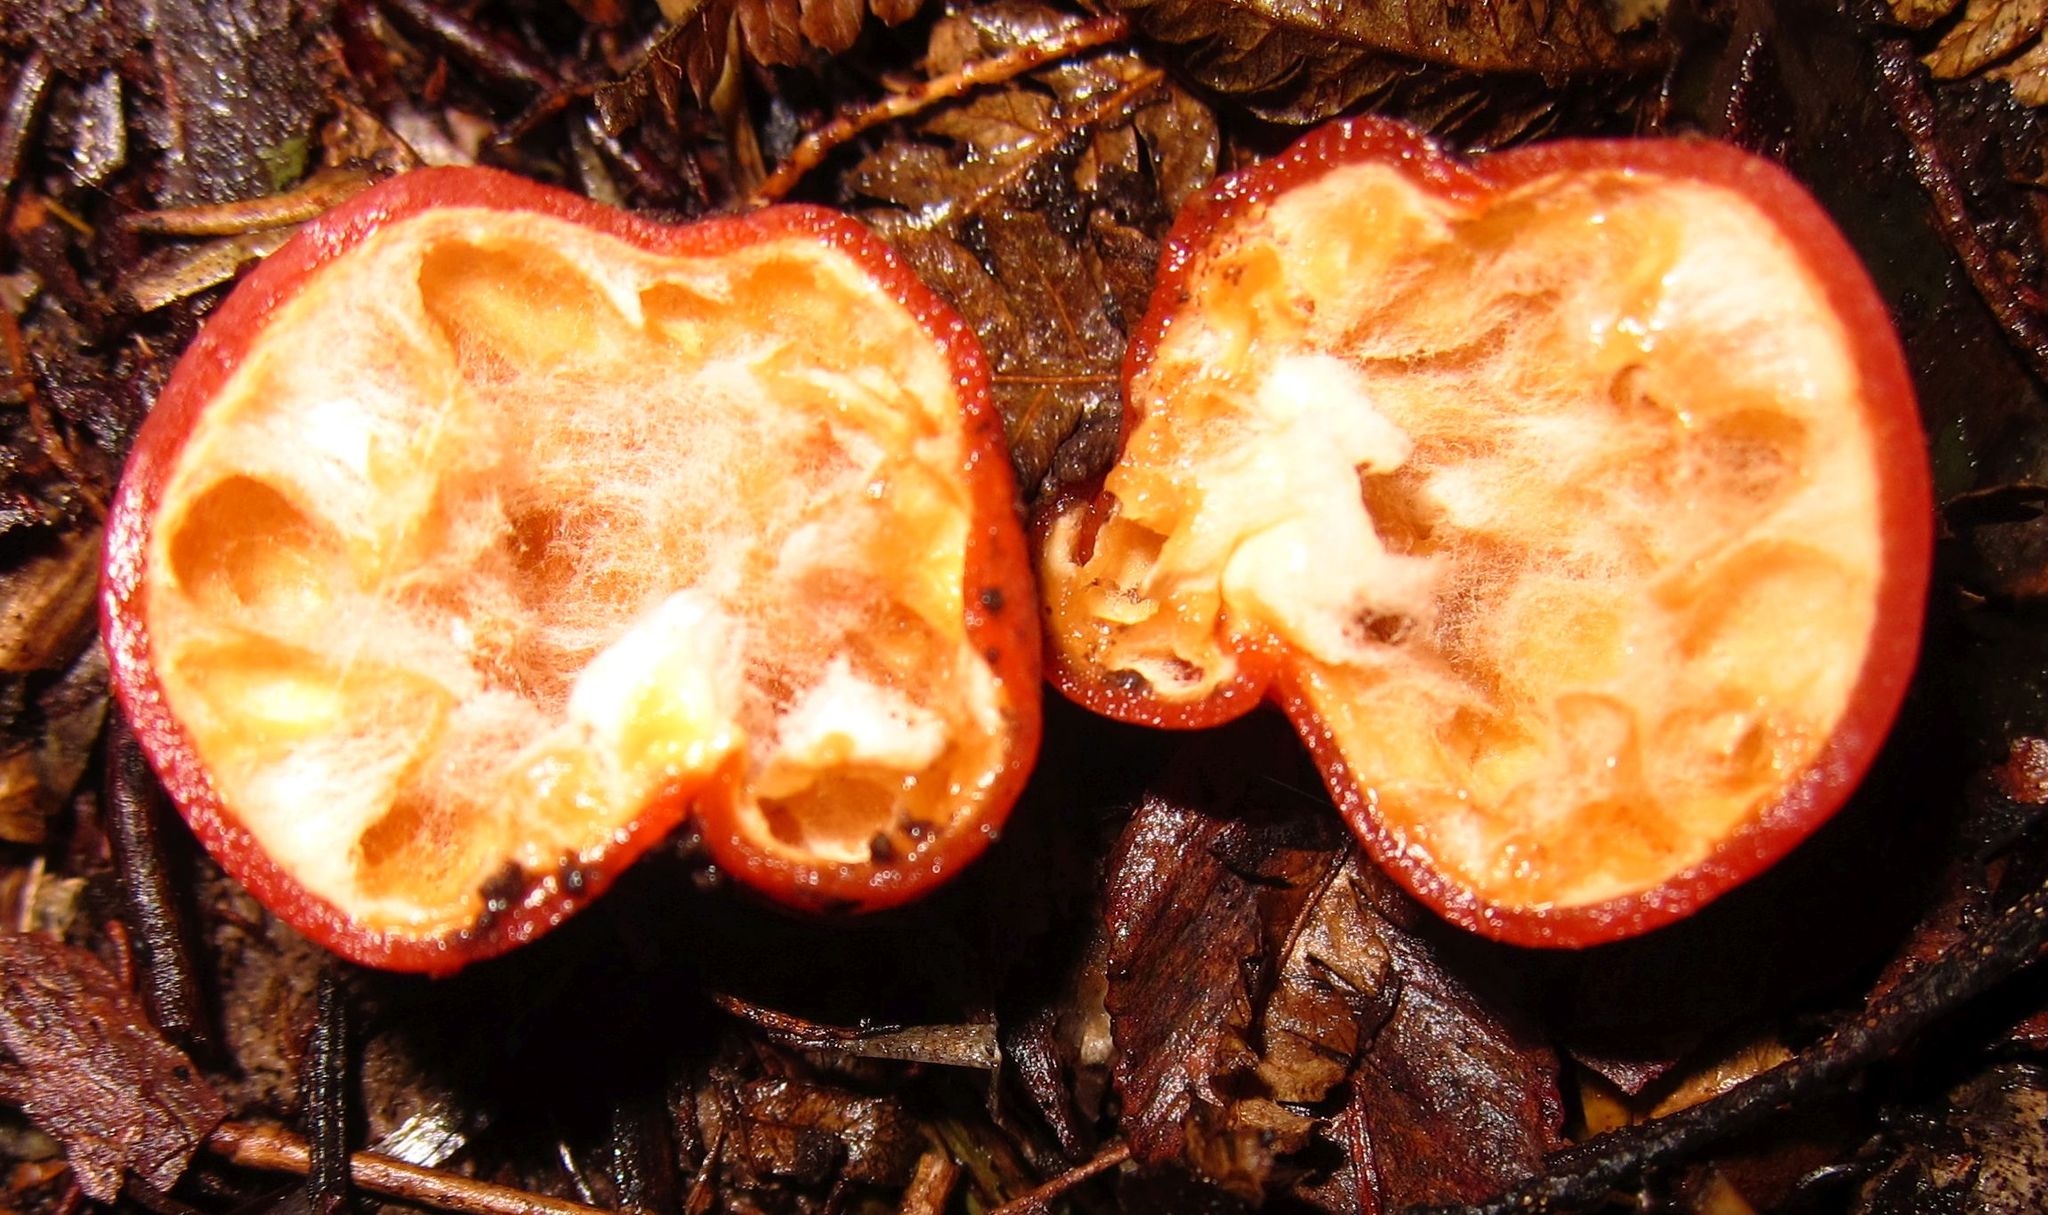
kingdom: Fungi
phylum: Ascomycota
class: Pezizomycetes
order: Pezizales
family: Pyronemataceae
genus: Paurocotylis
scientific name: Paurocotylis pila
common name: Scarlet berry truffle
